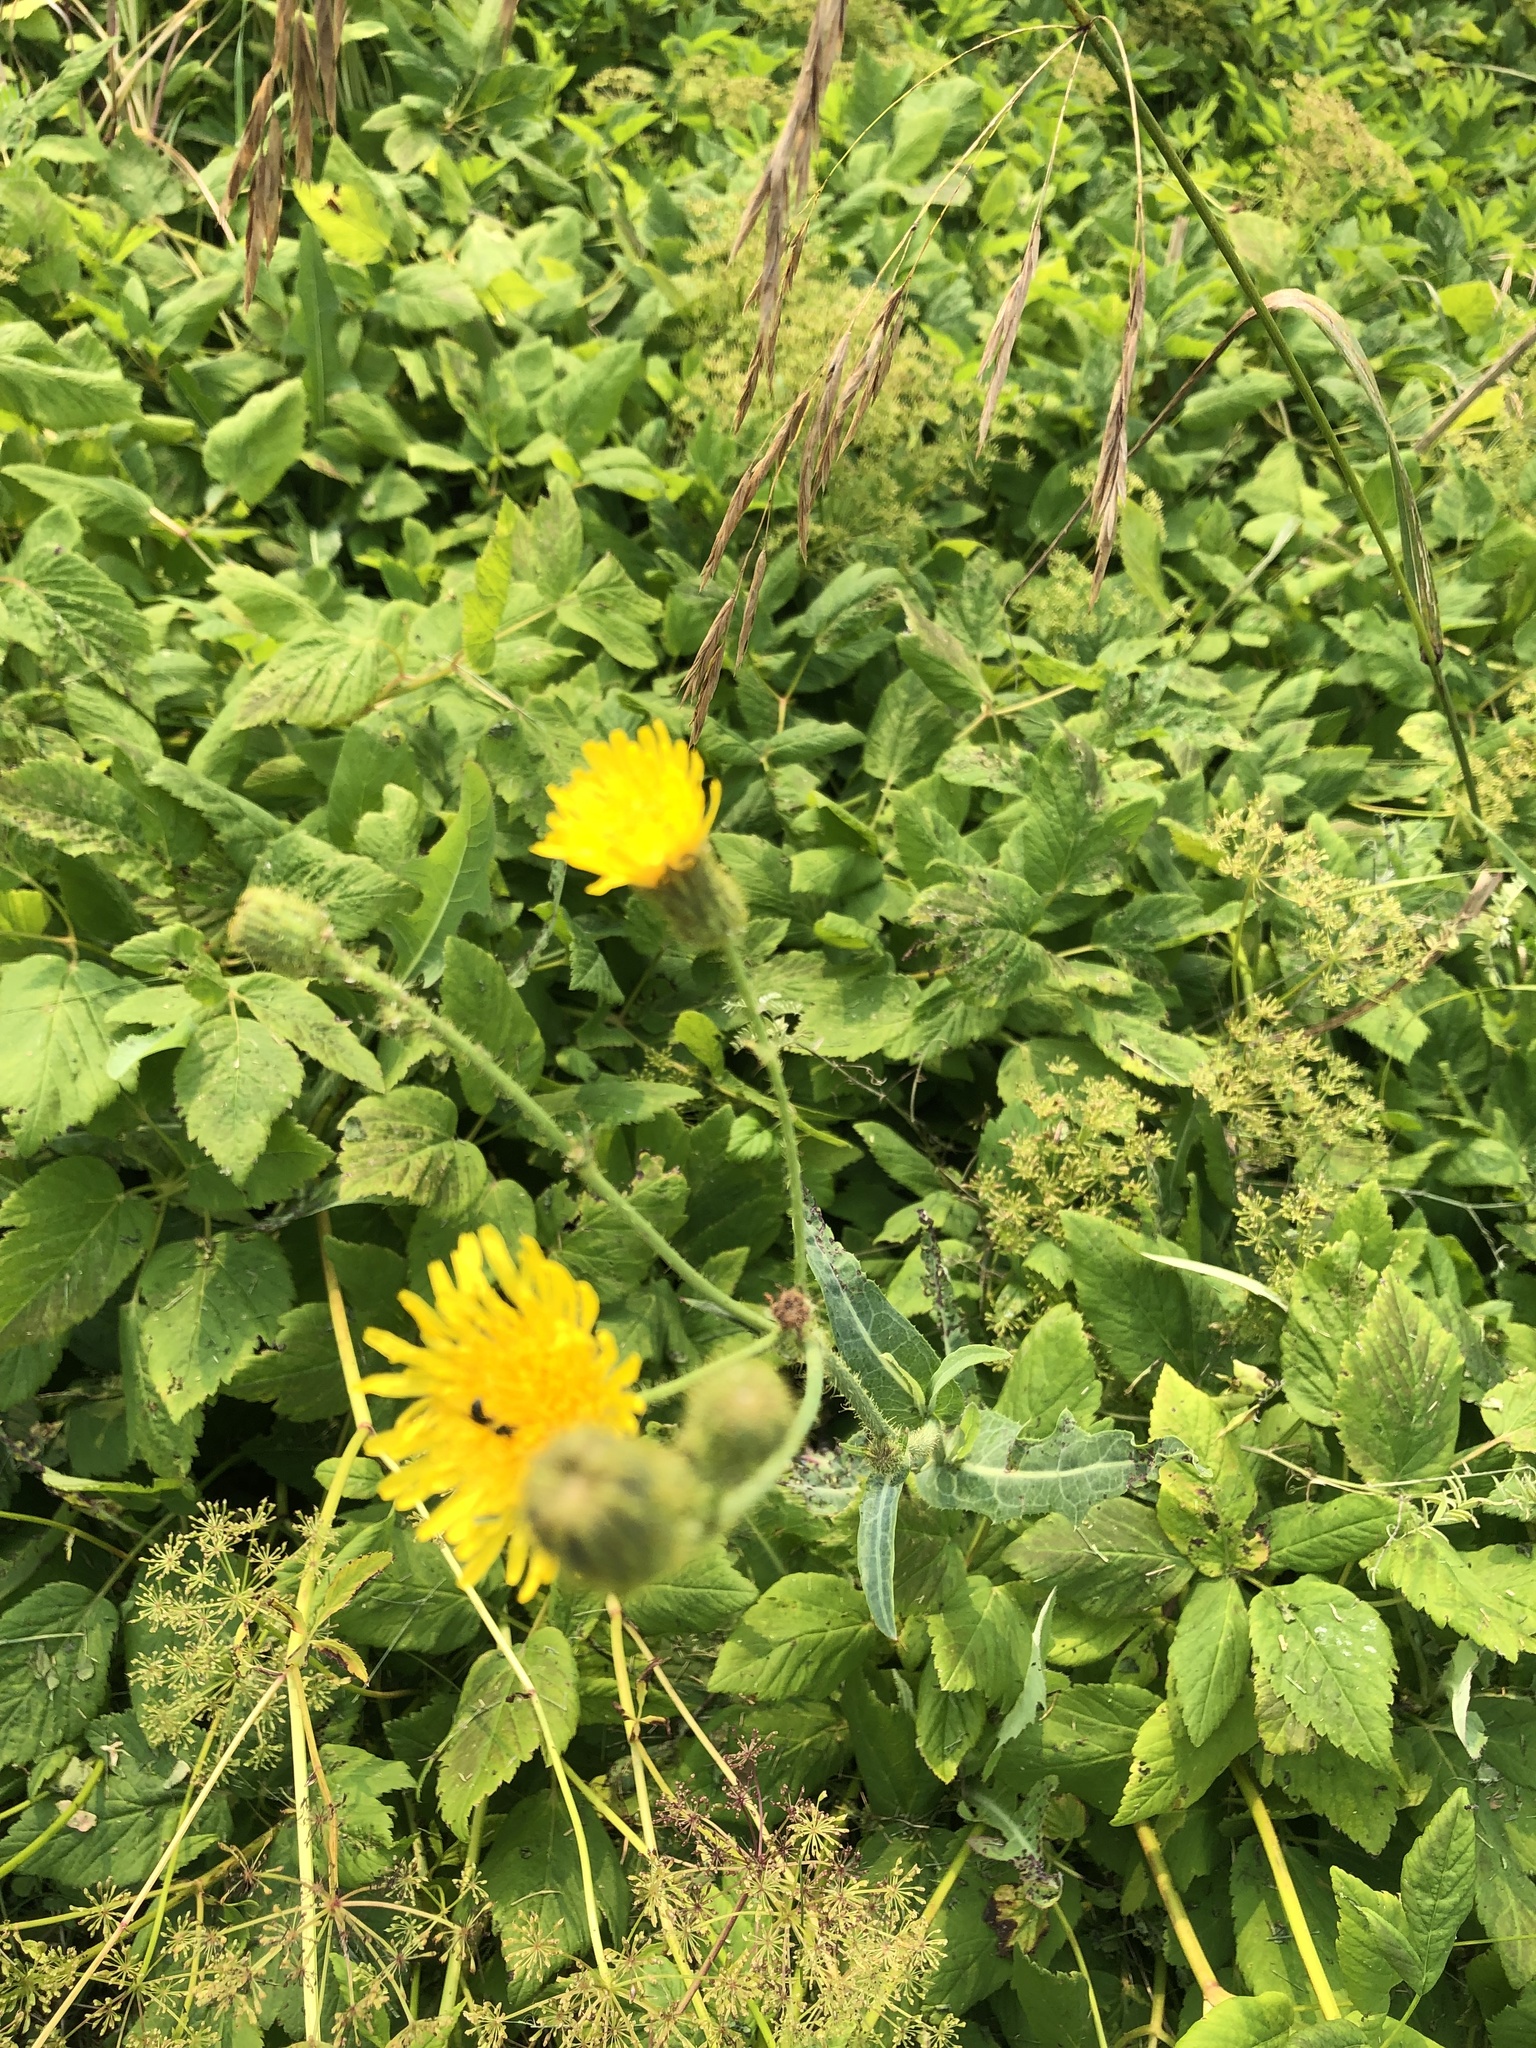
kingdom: Plantae
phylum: Tracheophyta
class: Magnoliopsida
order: Asterales
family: Asteraceae
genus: Sonchus
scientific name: Sonchus arvensis
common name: Perennial sow-thistle
